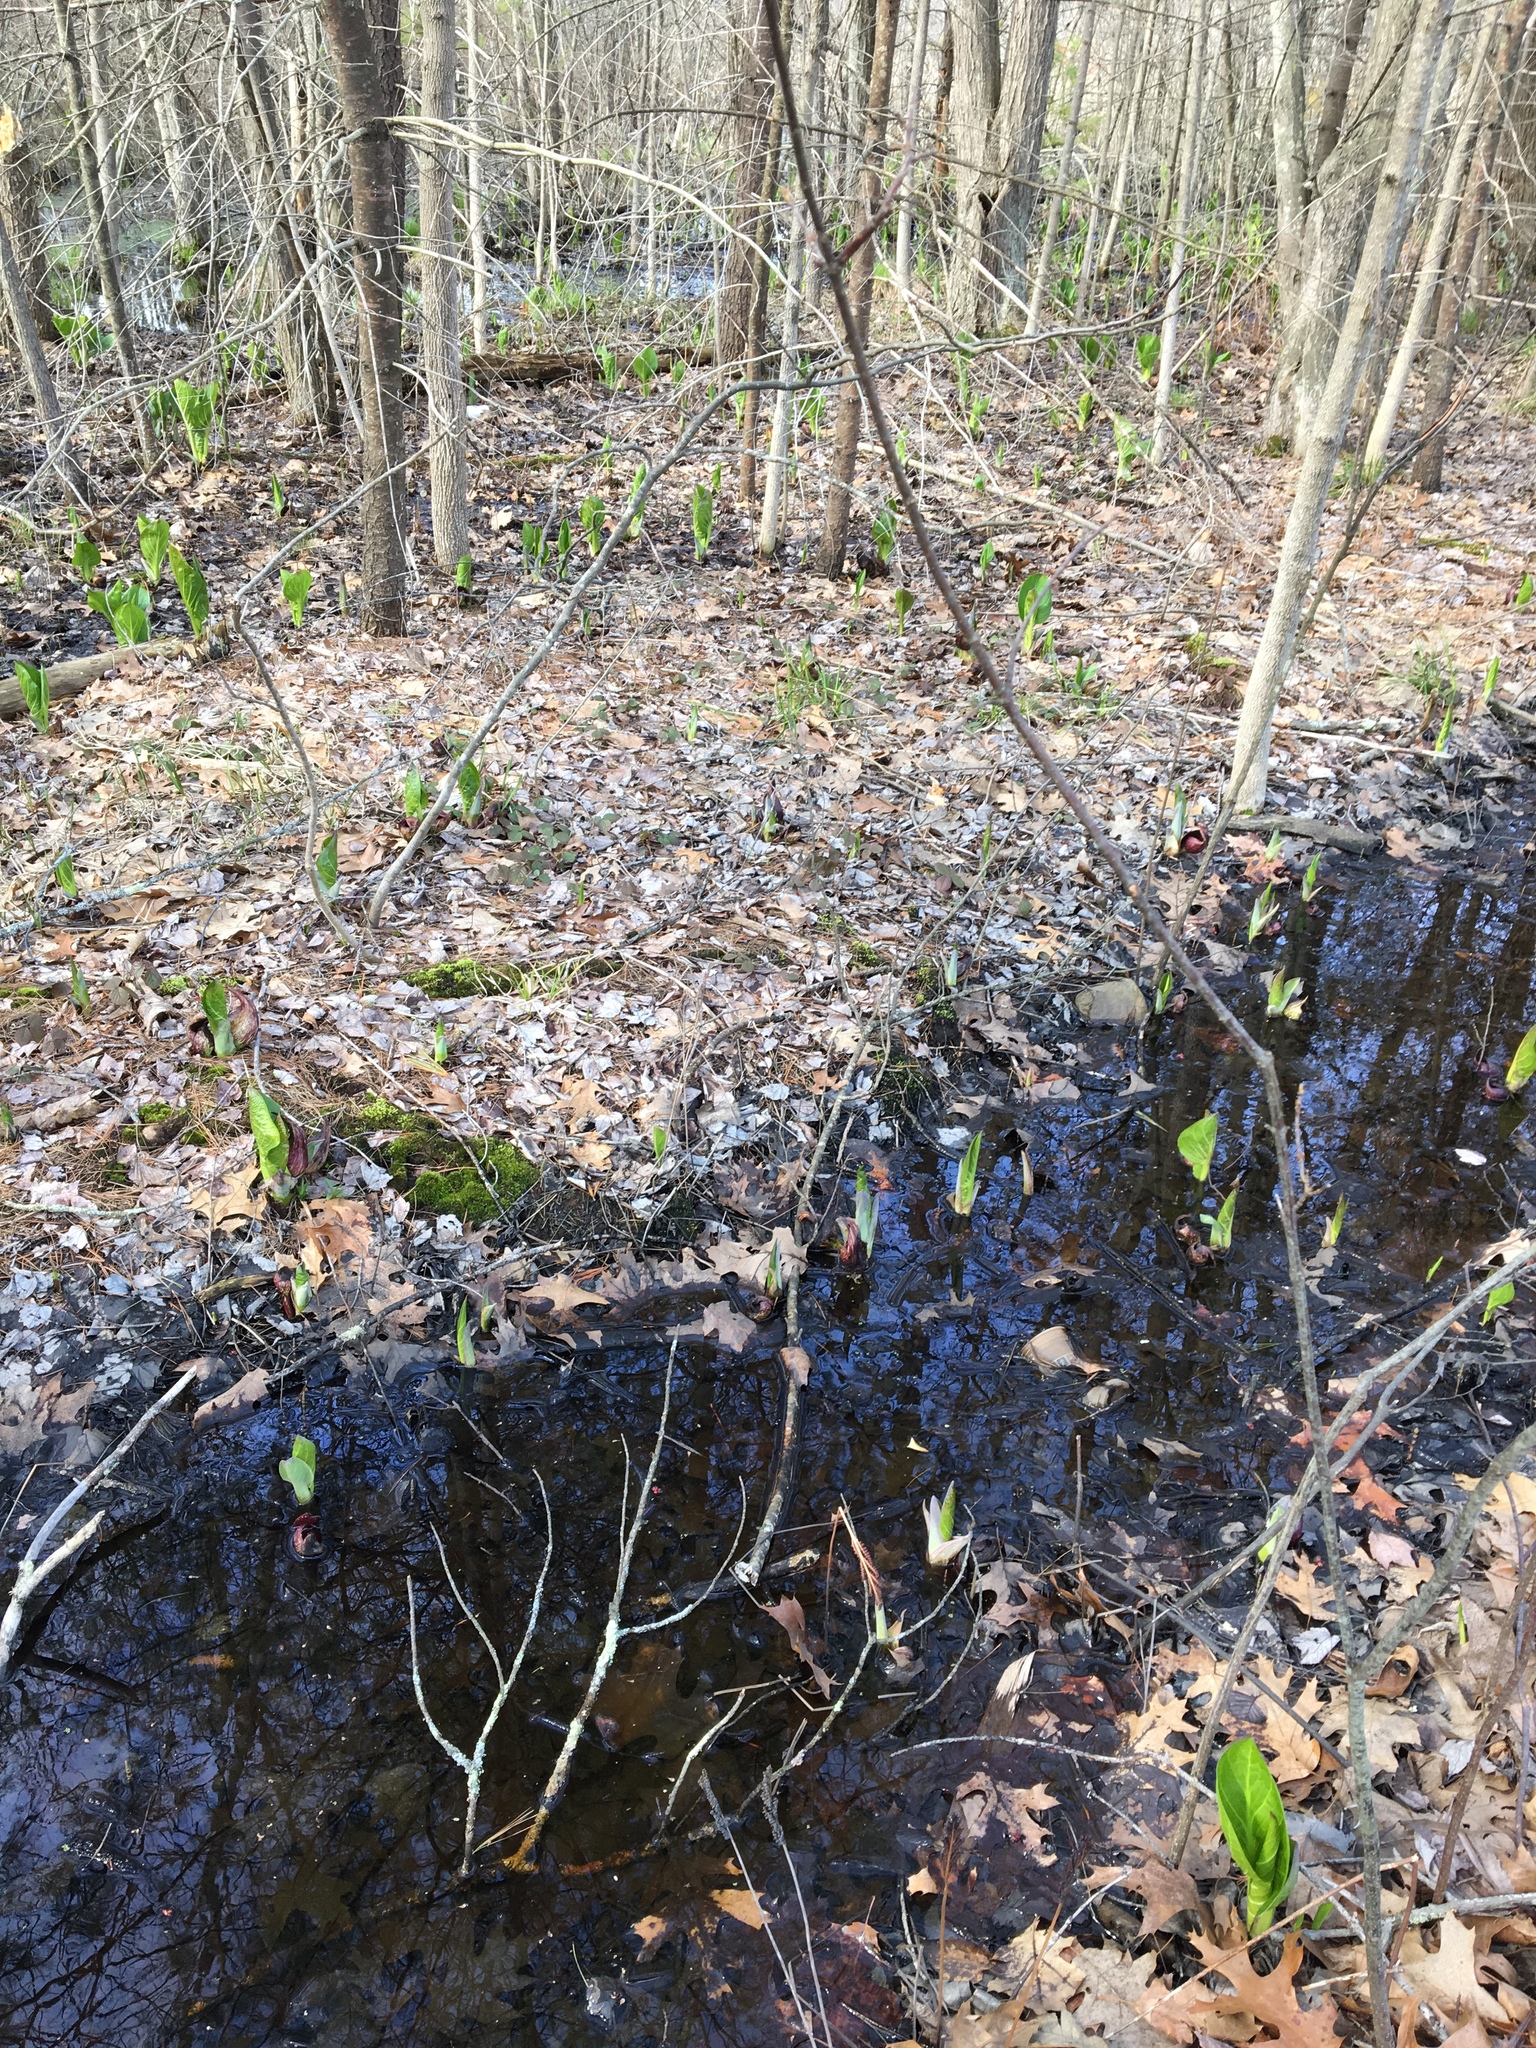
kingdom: Plantae
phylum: Tracheophyta
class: Liliopsida
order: Alismatales
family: Araceae
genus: Symplocarpus
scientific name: Symplocarpus foetidus
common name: Eastern skunk cabbage
